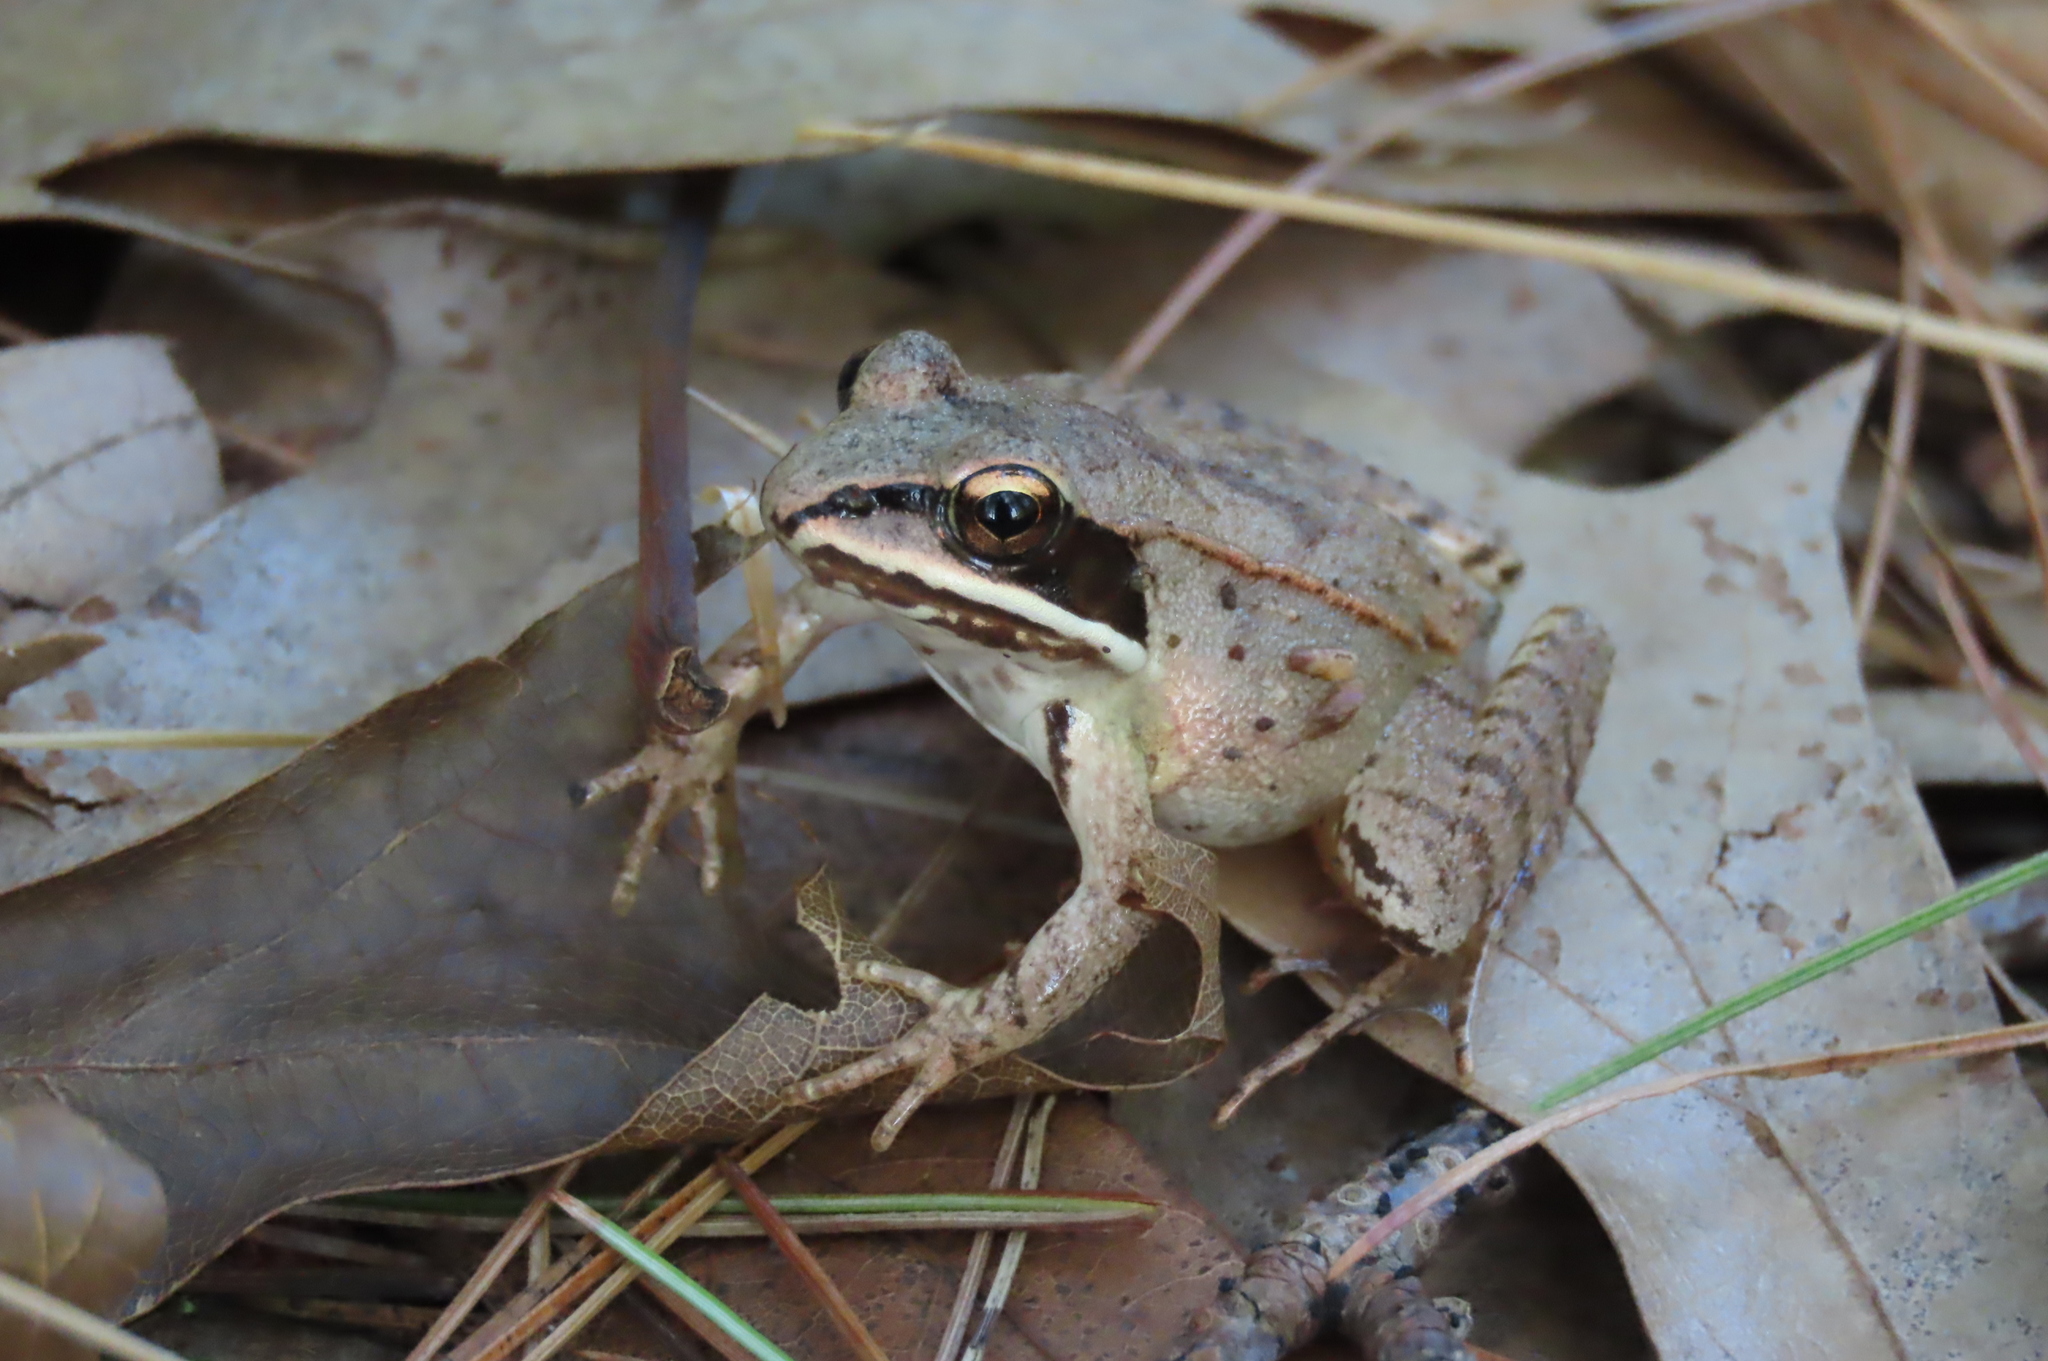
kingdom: Animalia
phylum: Chordata
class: Amphibia
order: Anura
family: Ranidae
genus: Lithobates
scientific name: Lithobates sylvaticus
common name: Wood frog
